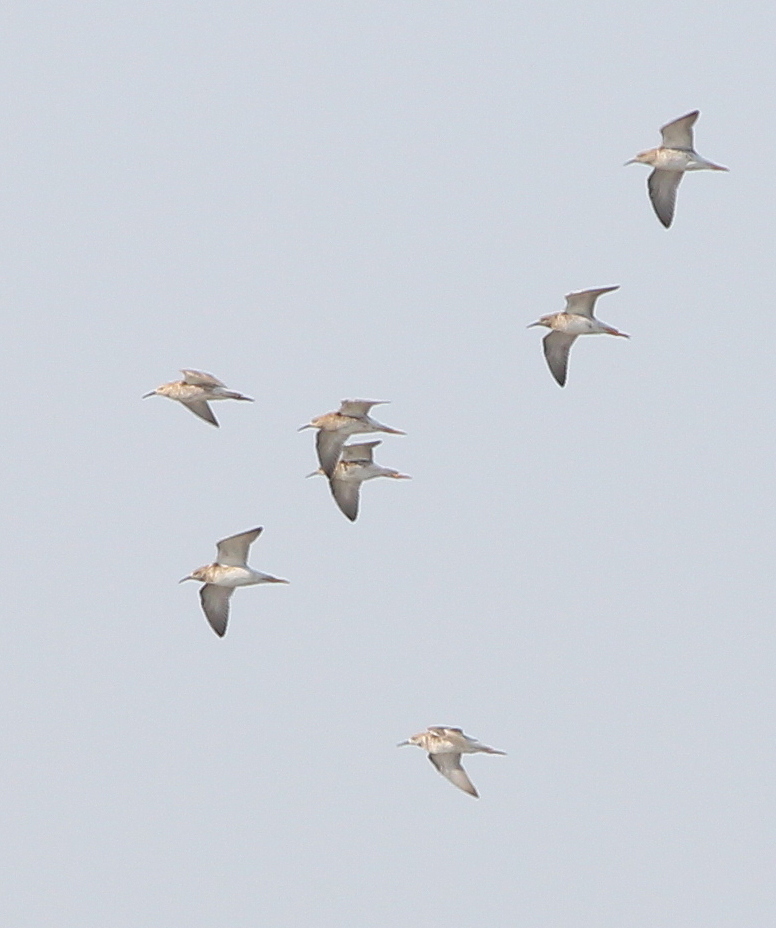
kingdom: Animalia
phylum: Chordata
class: Aves
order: Charadriiformes
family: Scolopacidae
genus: Calidris
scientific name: Calidris pugnax
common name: Ruff
